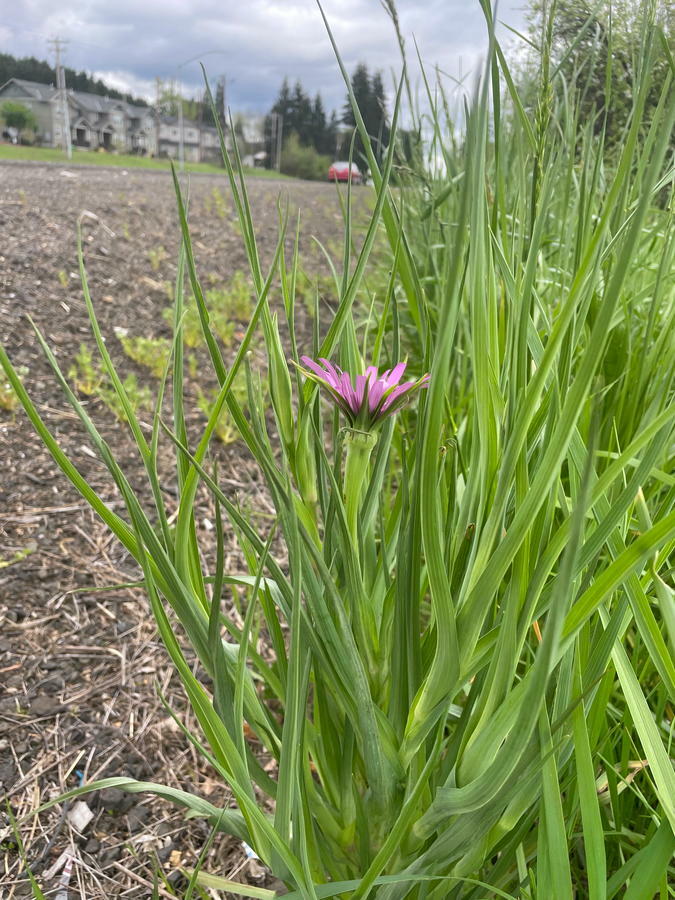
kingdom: Plantae
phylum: Tracheophyta
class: Magnoliopsida
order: Asterales
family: Asteraceae
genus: Tragopogon
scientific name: Tragopogon porrifolius
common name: Salsify
